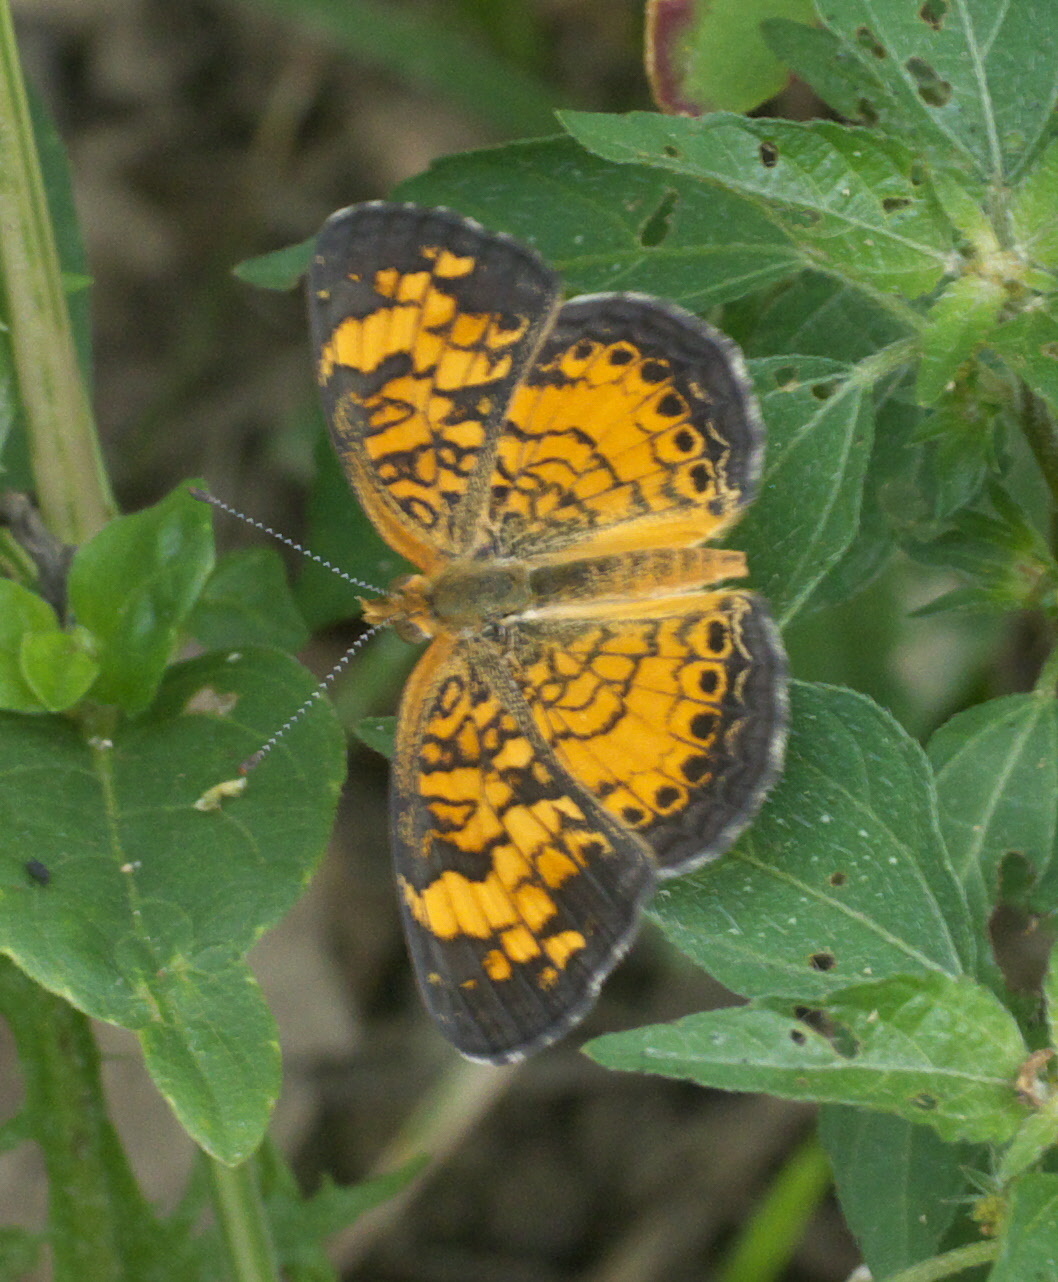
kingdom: Animalia
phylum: Arthropoda
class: Insecta
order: Lepidoptera
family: Nymphalidae
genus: Phyciodes
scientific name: Phyciodes tharos
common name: Pearl crescent
